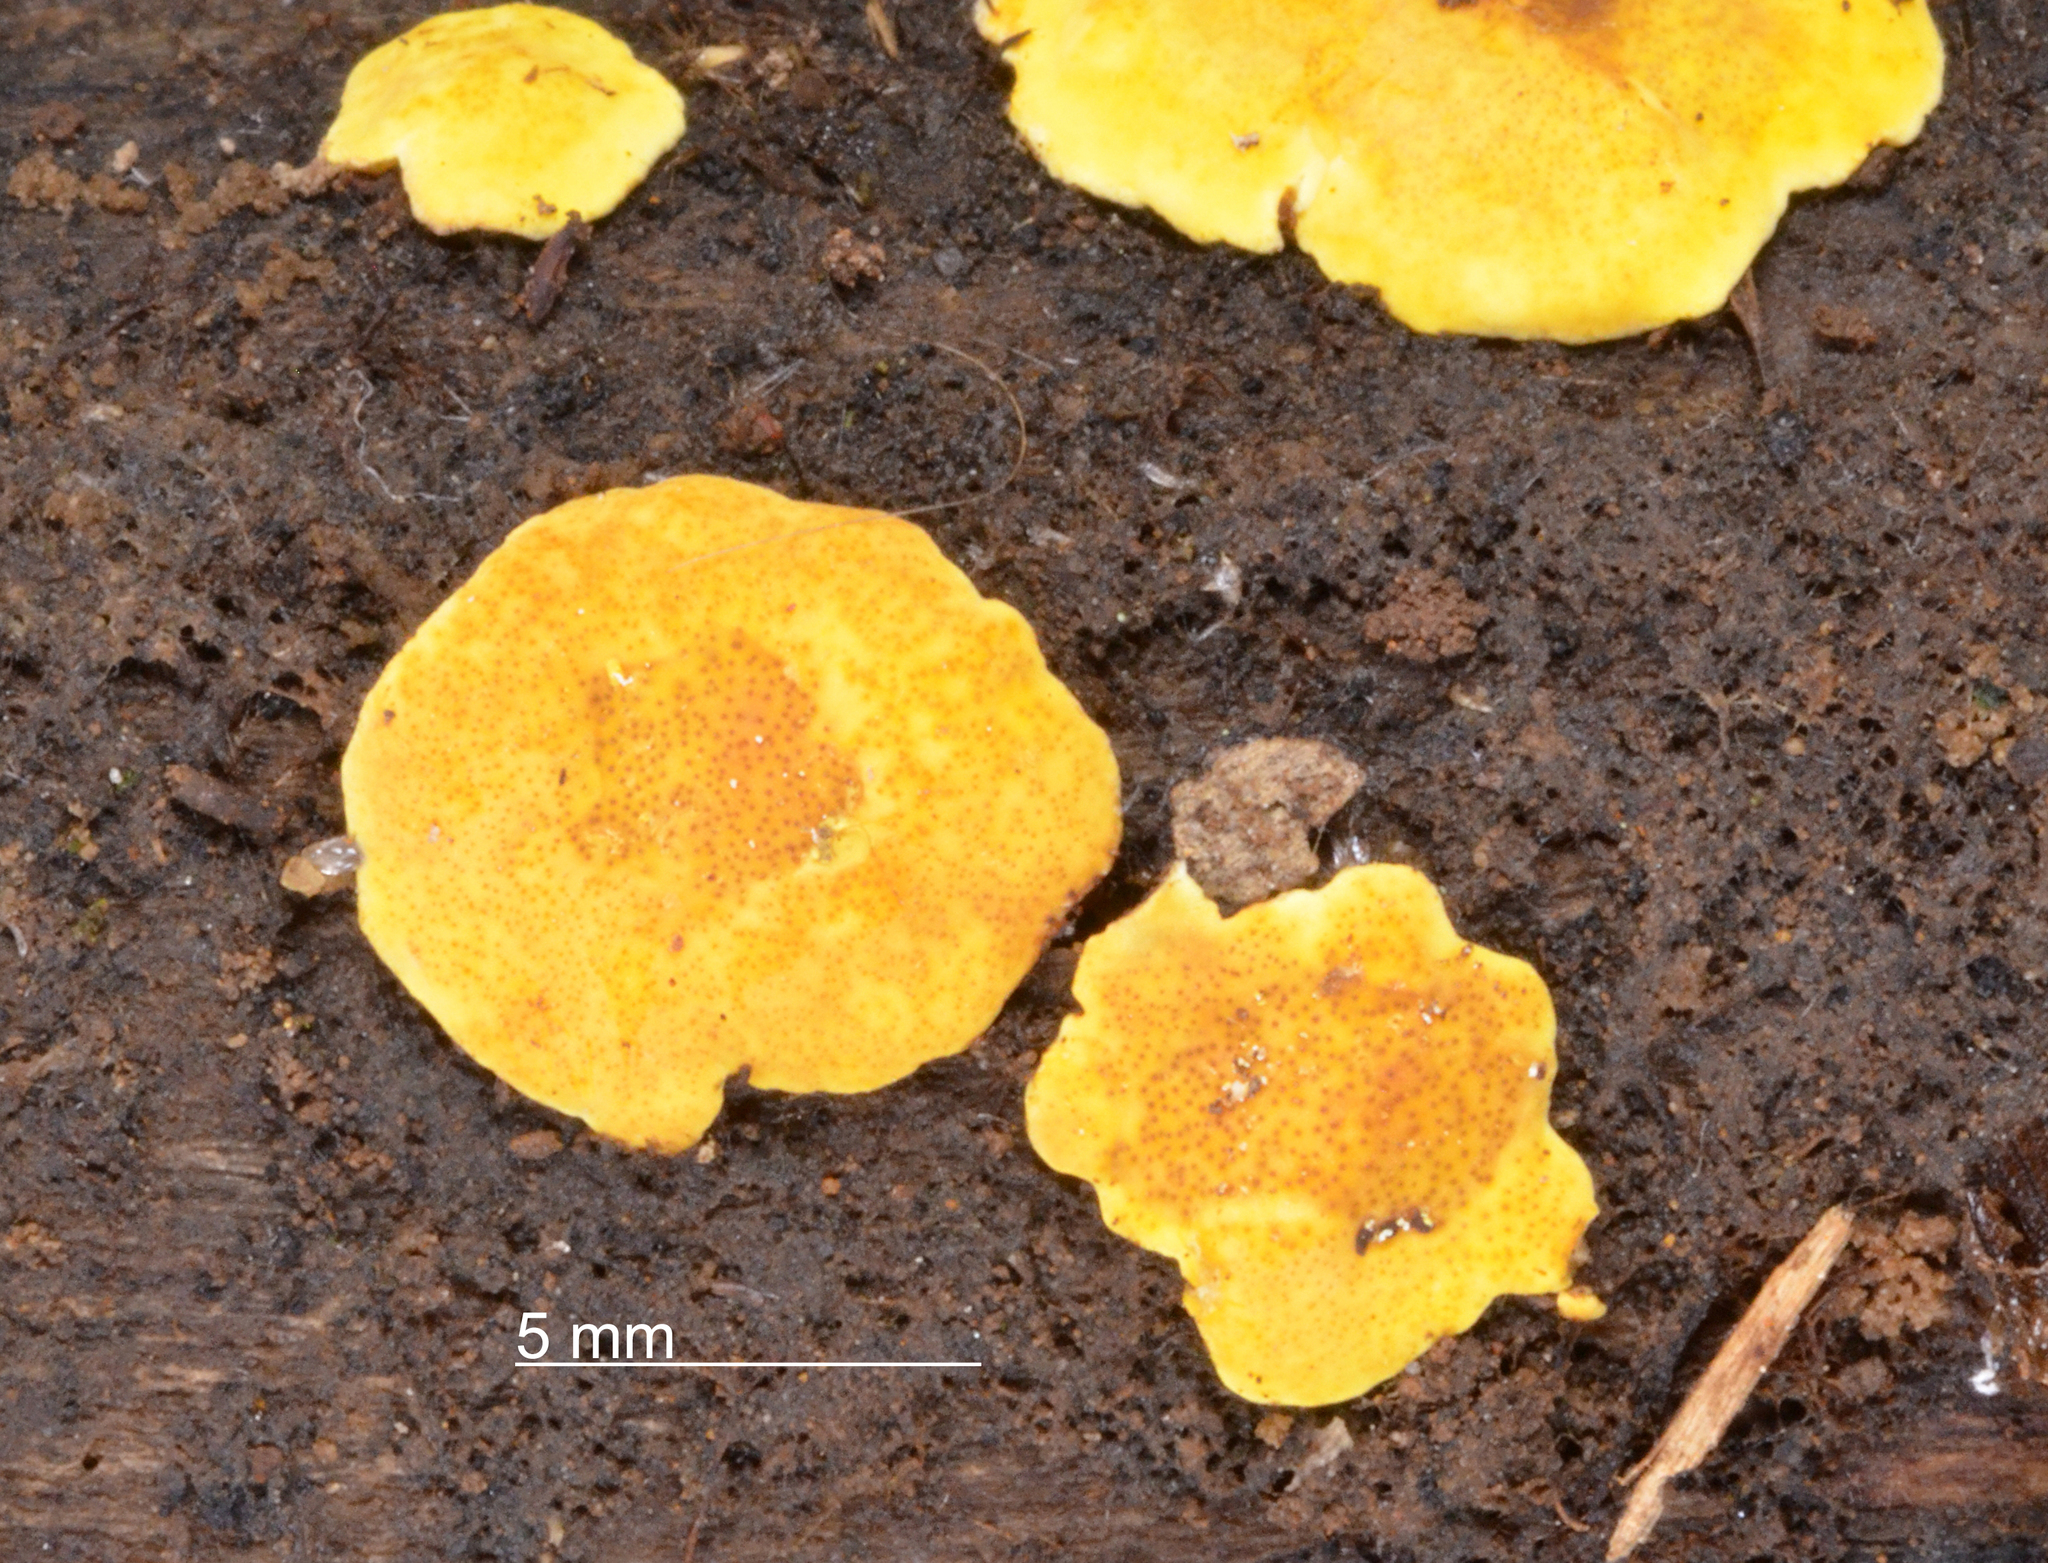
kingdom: Fungi
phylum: Ascomycota
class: Sordariomycetes
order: Hypocreales
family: Hypocreaceae
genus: Hypocrea
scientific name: Hypocrea subcitrina
